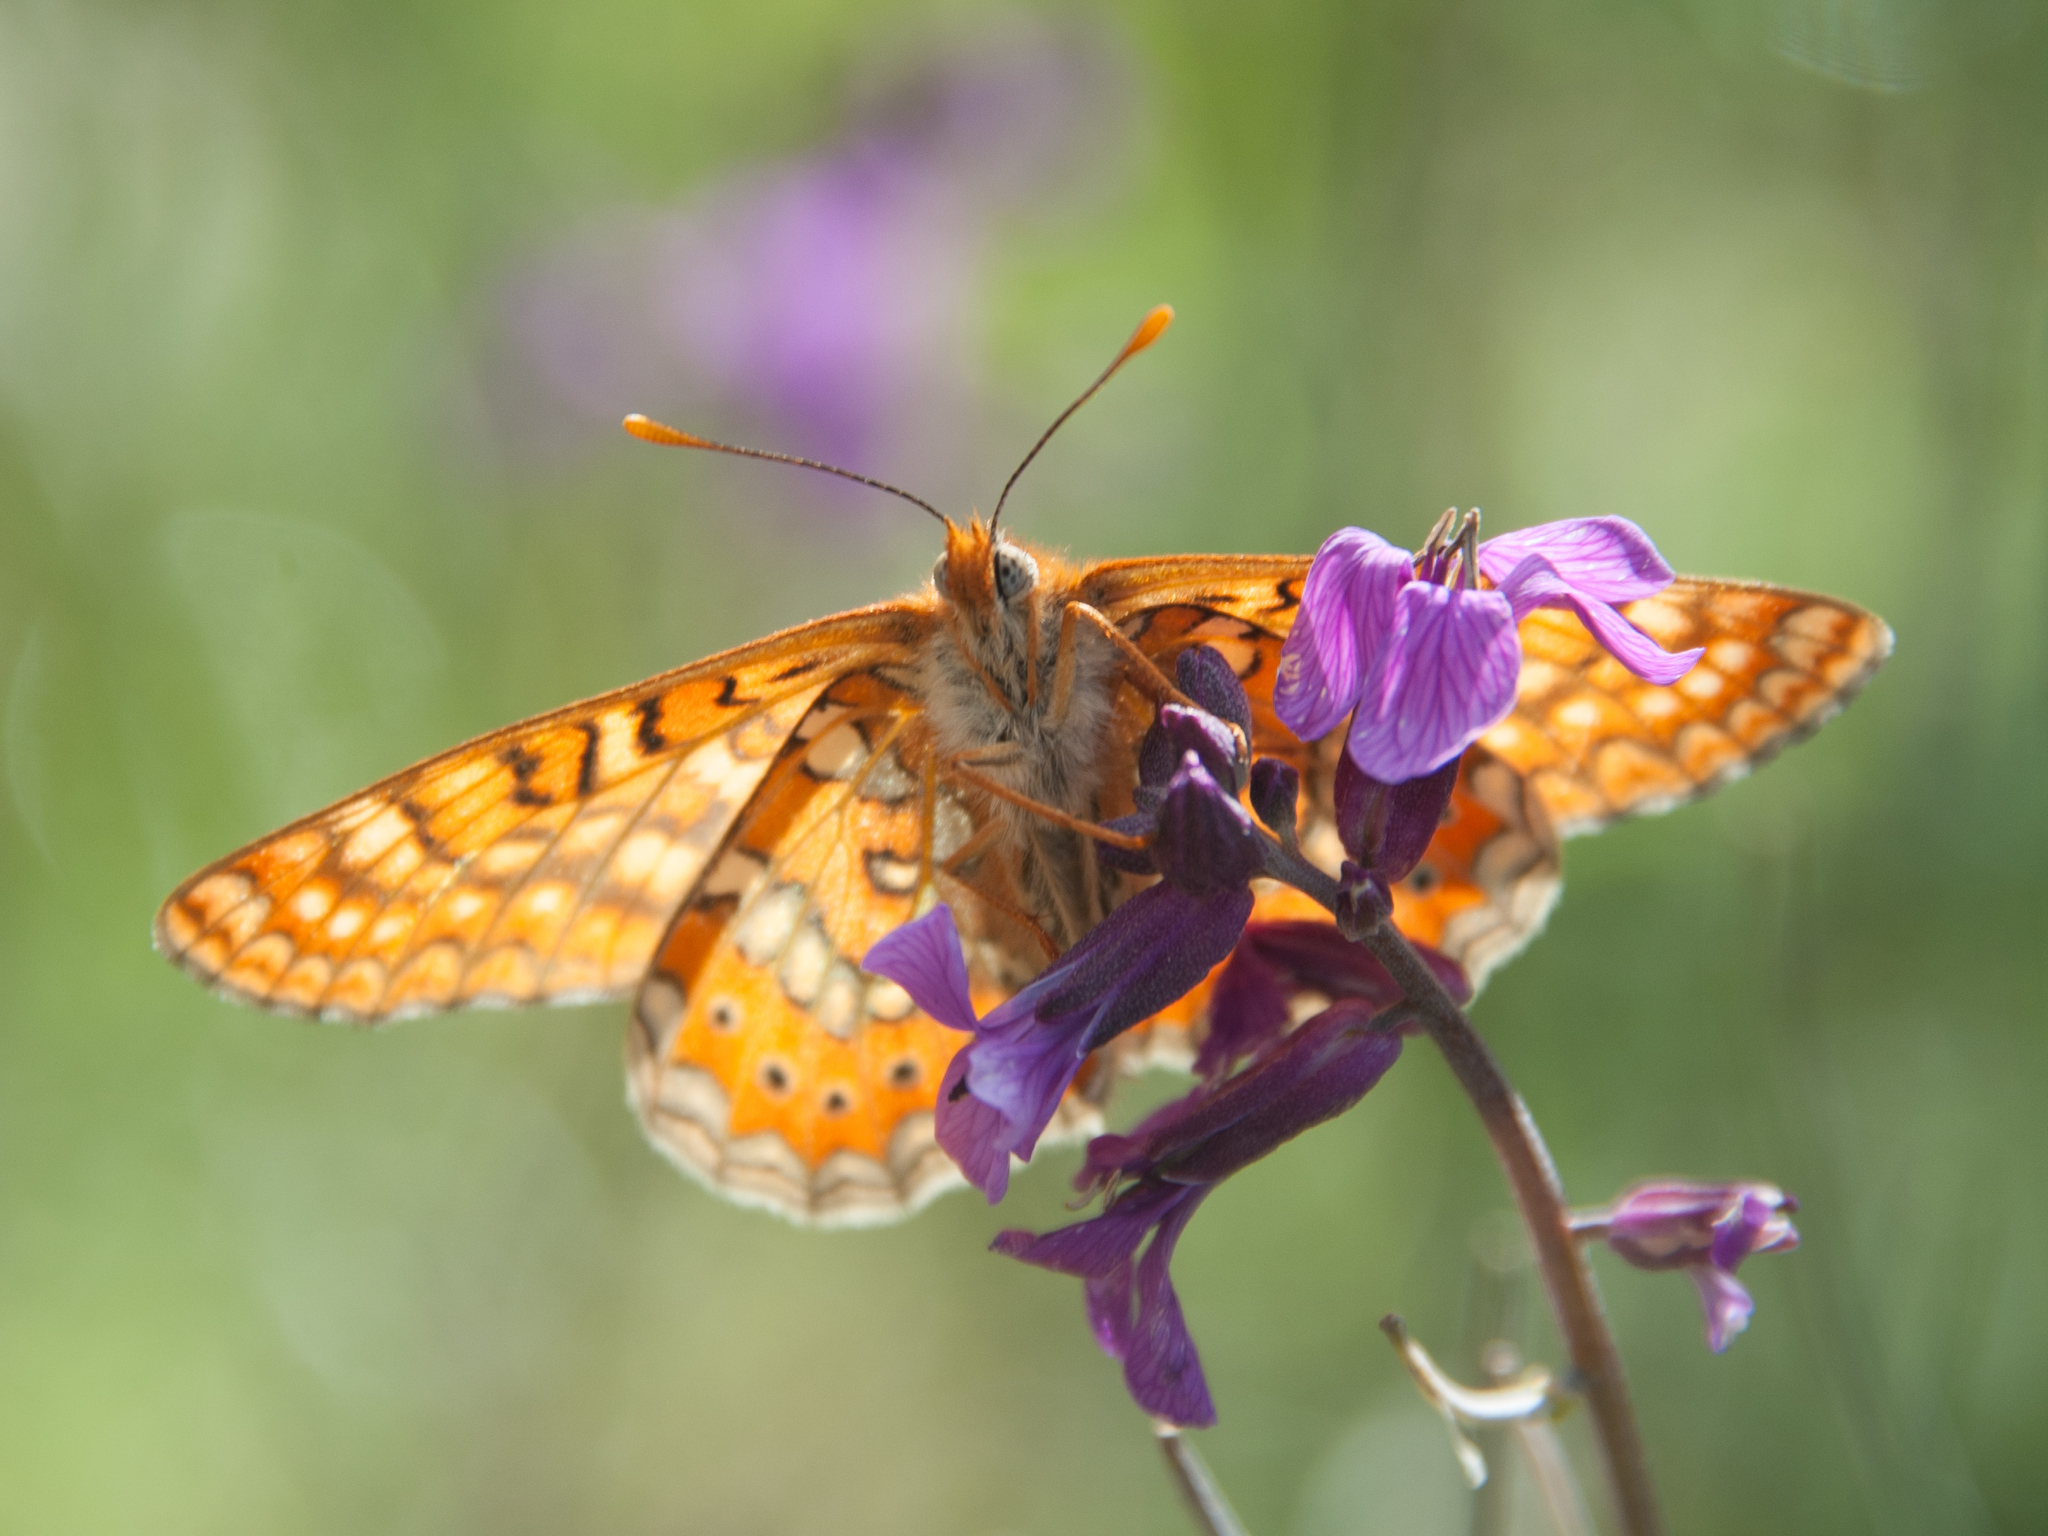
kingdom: Animalia
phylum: Arthropoda
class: Insecta
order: Lepidoptera
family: Nymphalidae
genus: Euphydryas
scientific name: Euphydryas aurinia
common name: Marsh fritillary
